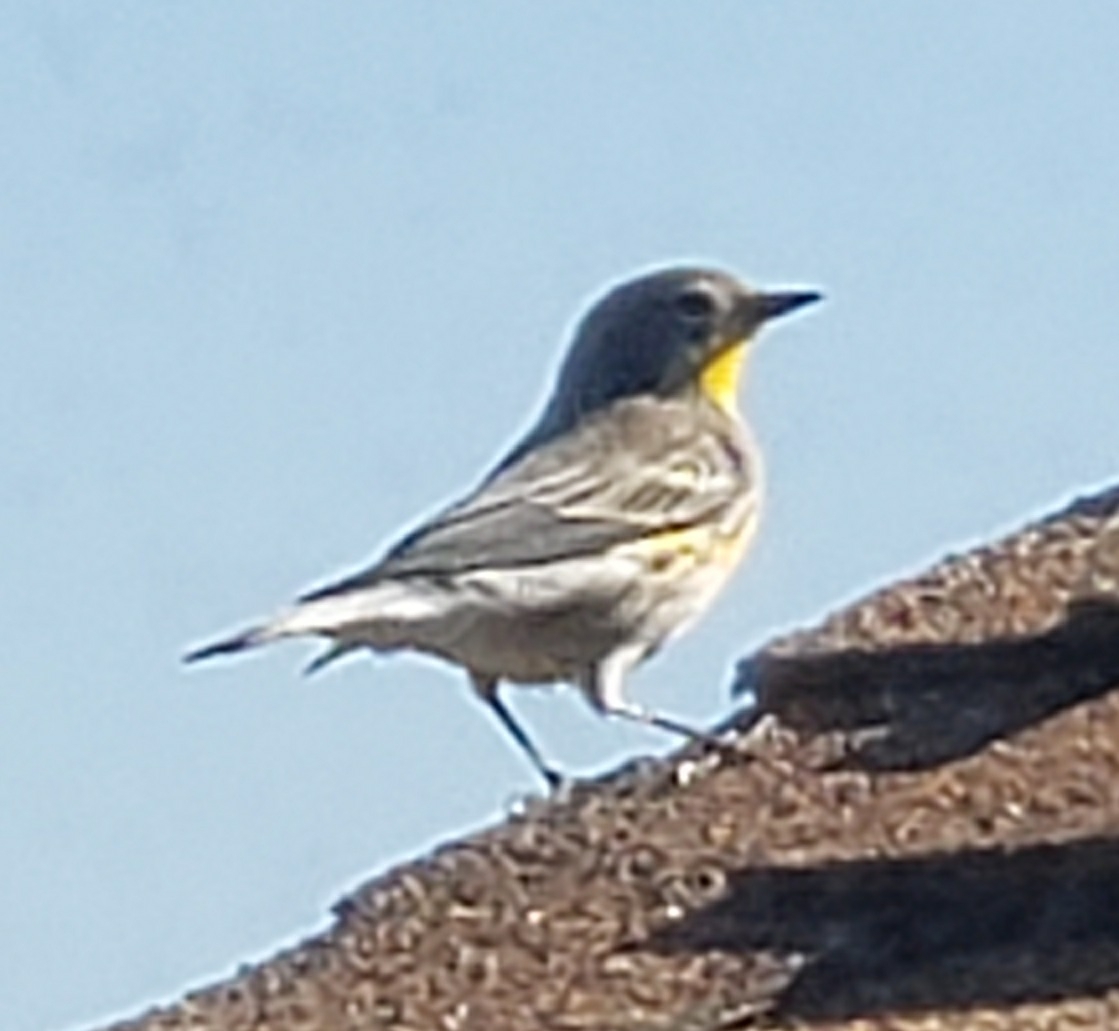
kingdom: Animalia
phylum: Chordata
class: Aves
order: Passeriformes
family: Parulidae
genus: Setophaga
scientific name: Setophaga coronata
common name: Myrtle warbler
